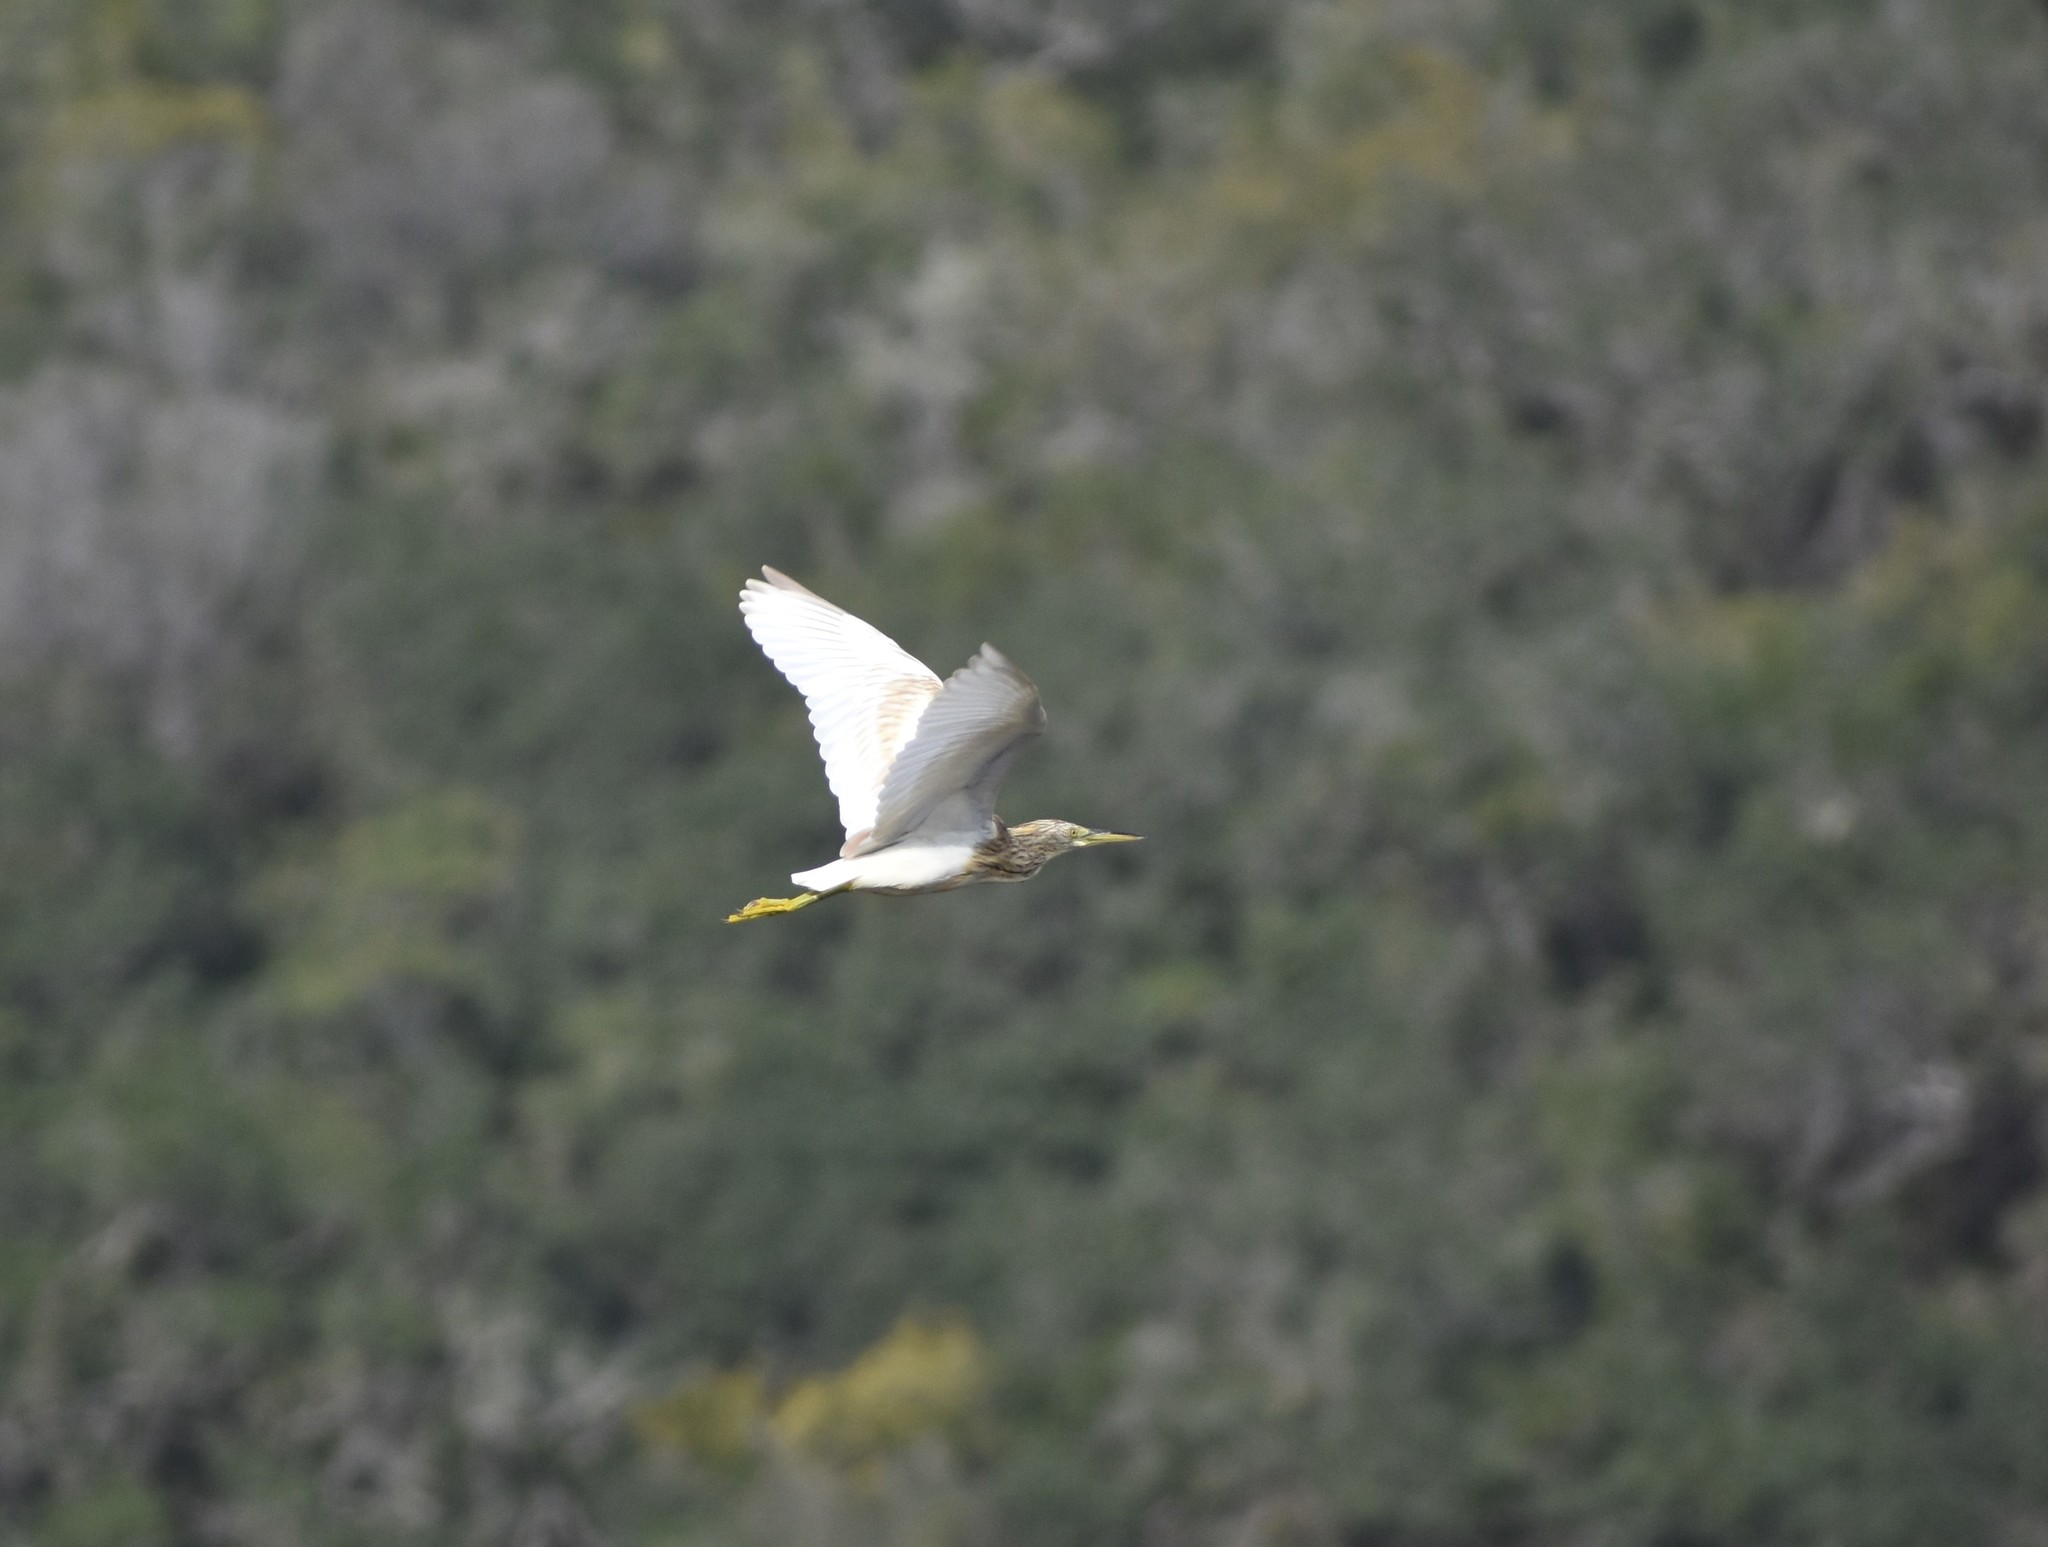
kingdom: Animalia
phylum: Chordata
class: Aves
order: Pelecaniformes
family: Ardeidae
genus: Ardeola
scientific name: Ardeola ralloides
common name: Squacco heron
